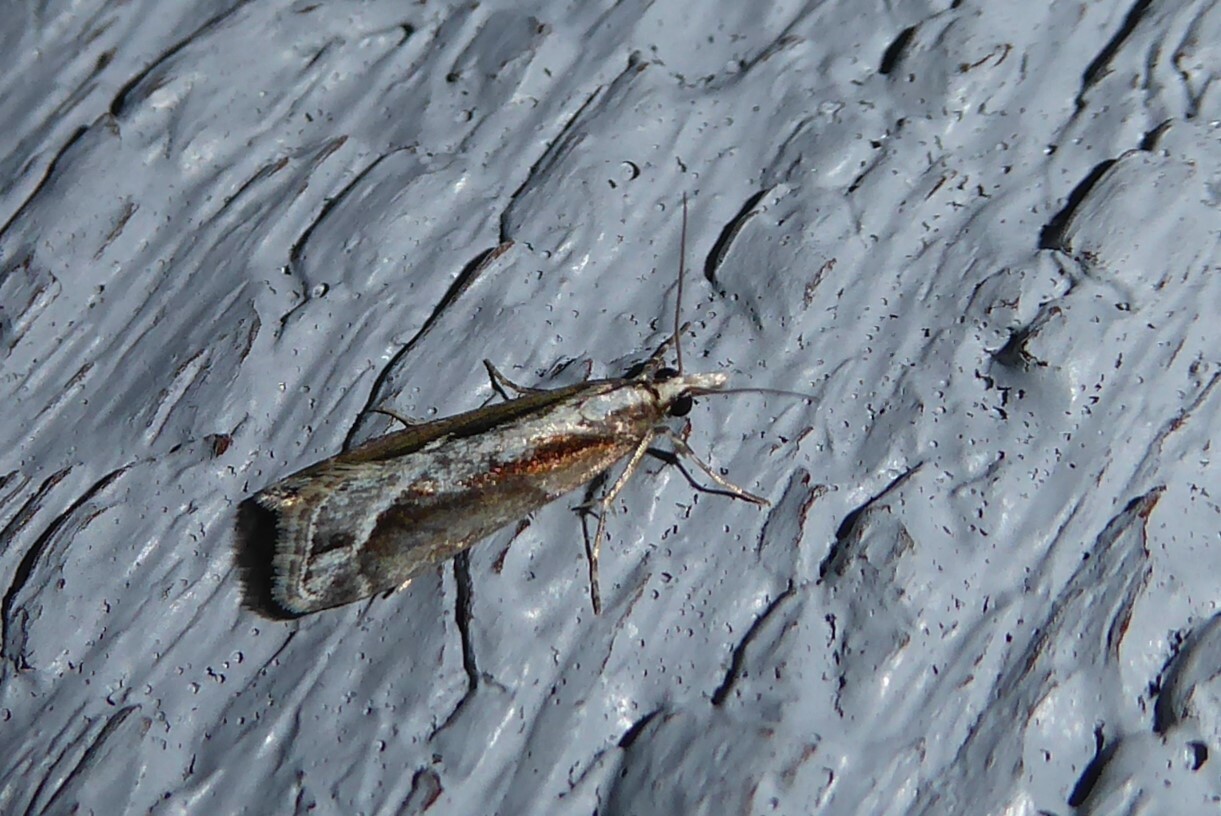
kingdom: Animalia
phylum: Arthropoda
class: Insecta
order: Lepidoptera
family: Crambidae
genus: Eudonia
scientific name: Eudonia steropaea
